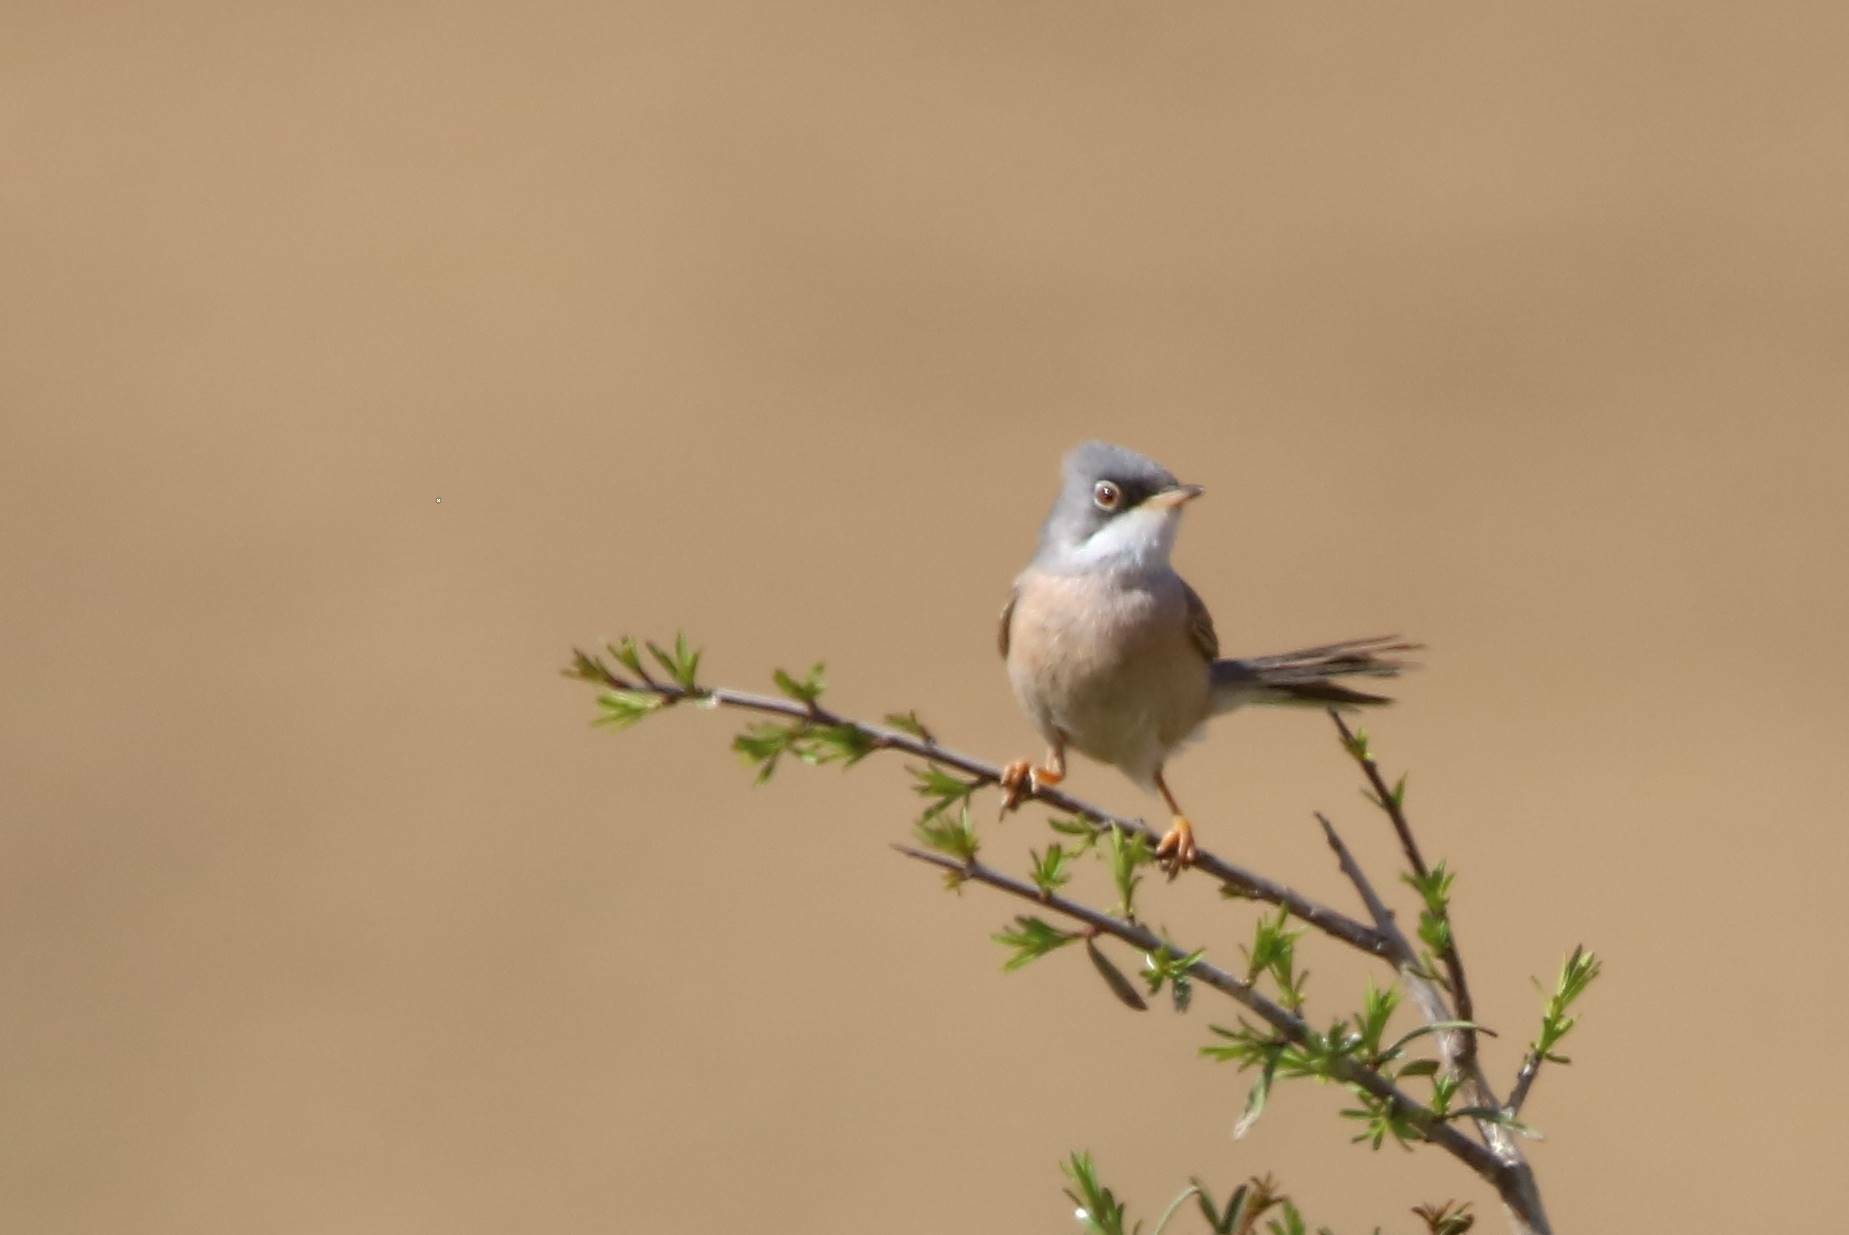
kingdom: Animalia
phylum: Chordata
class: Aves
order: Passeriformes
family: Sylviidae
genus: Sylvia
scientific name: Sylvia conspicillata
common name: Spectacled warbler
